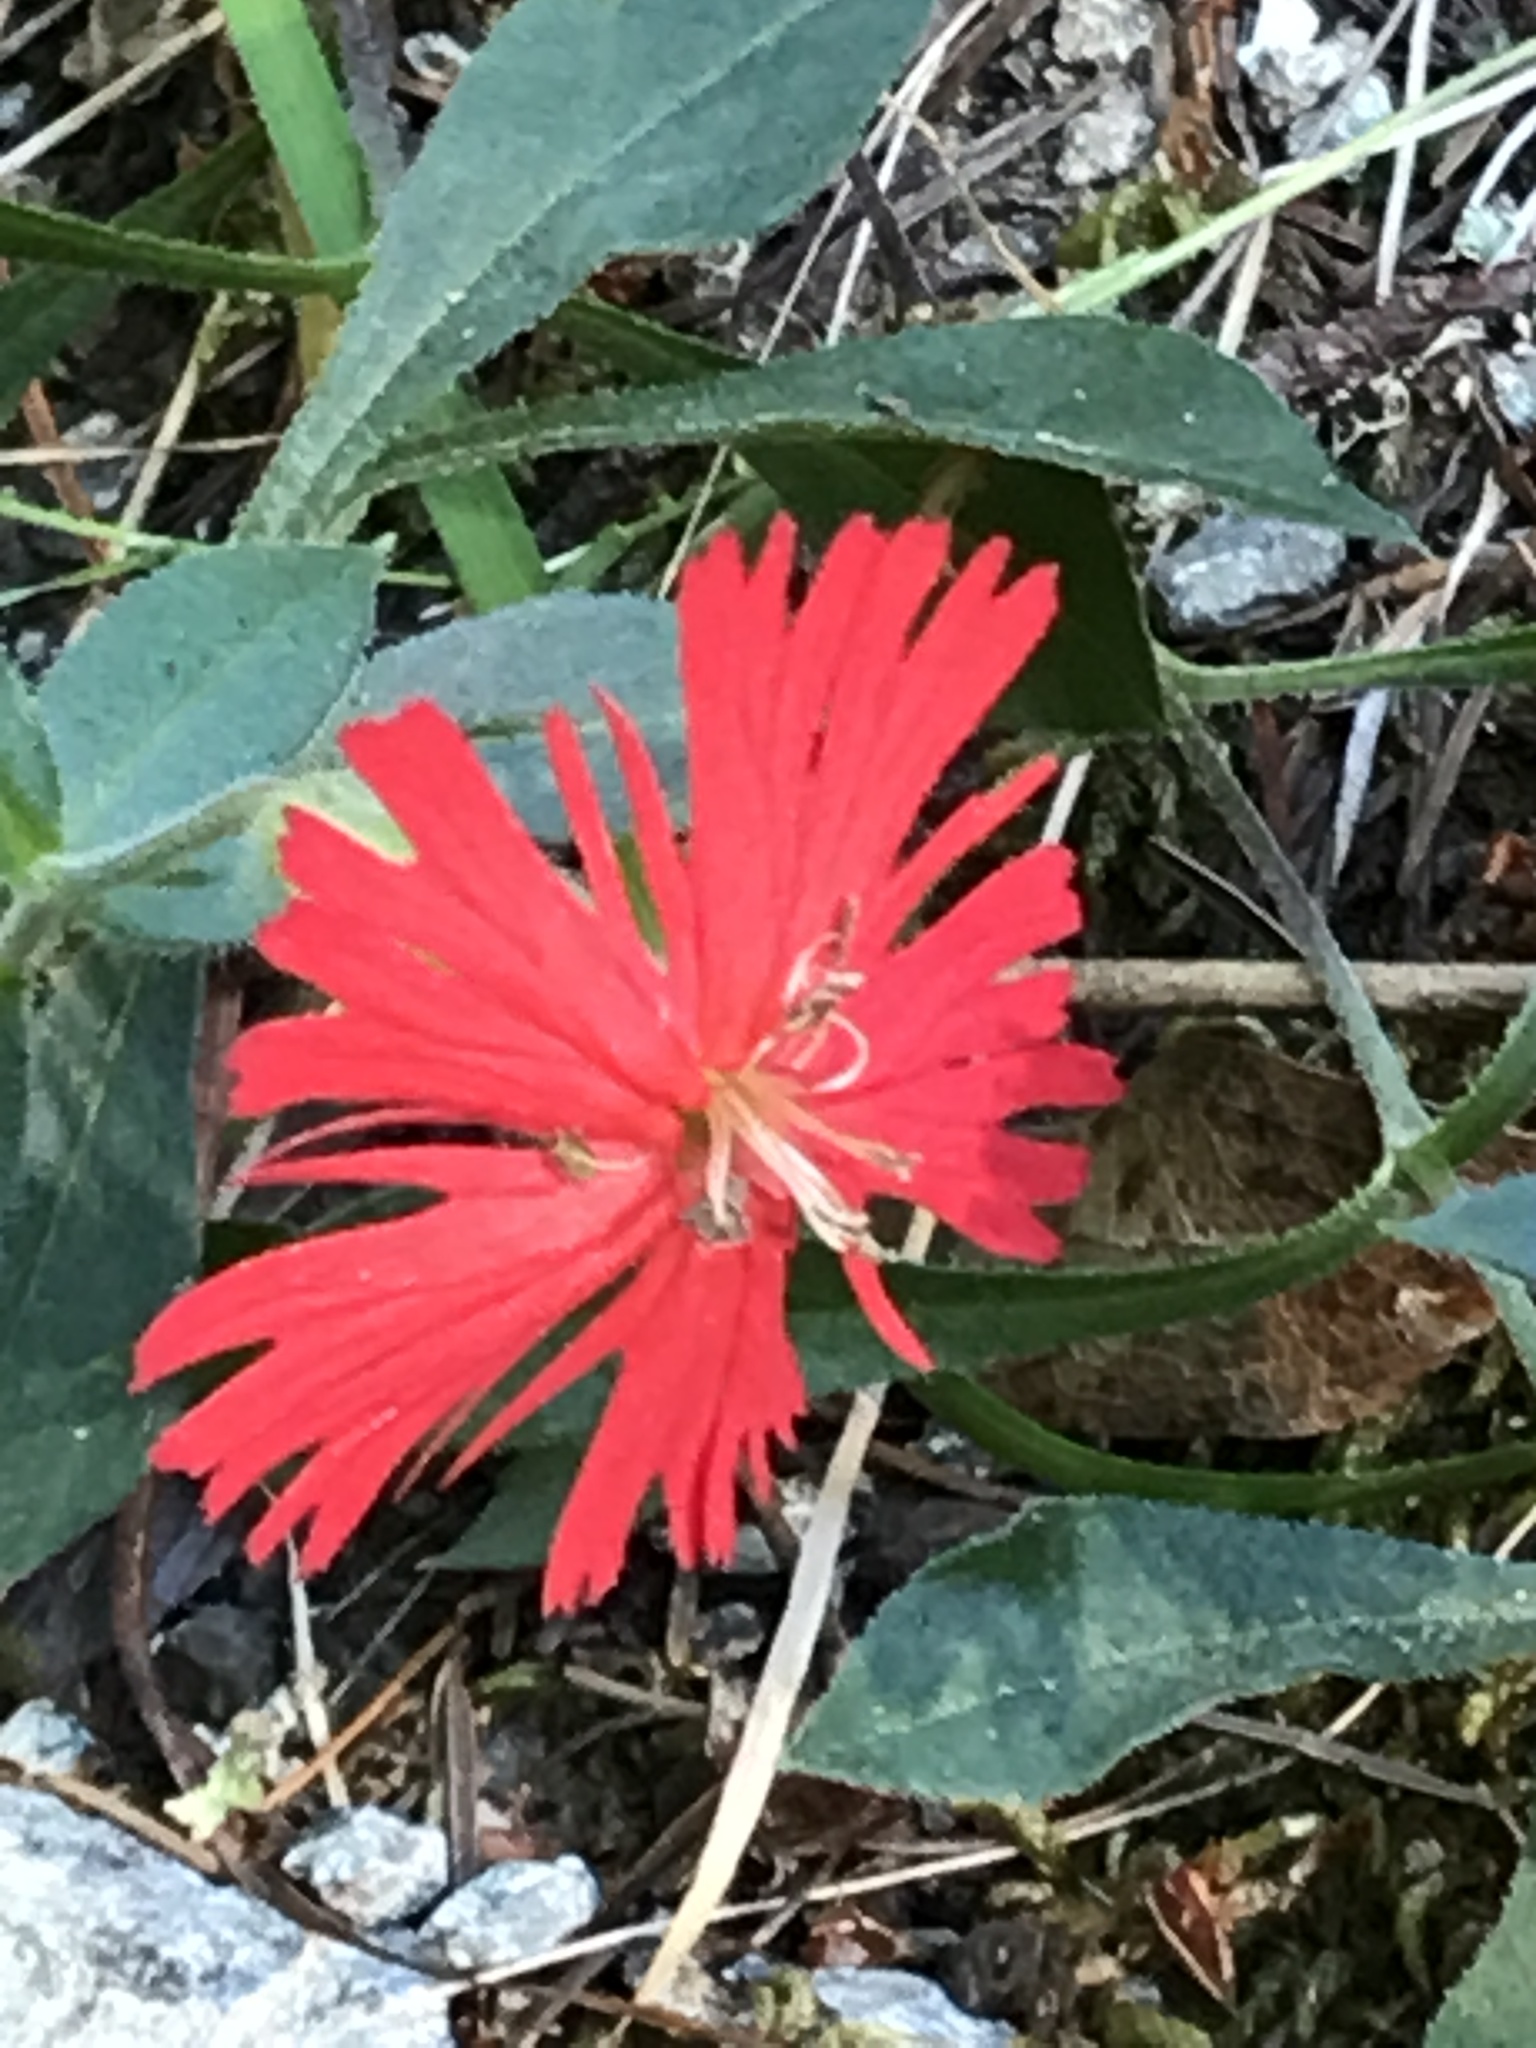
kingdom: Plantae
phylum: Tracheophyta
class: Magnoliopsida
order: Caryophyllales
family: Caryophyllaceae
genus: Silene
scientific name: Silene laciniata
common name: Indian-pink
